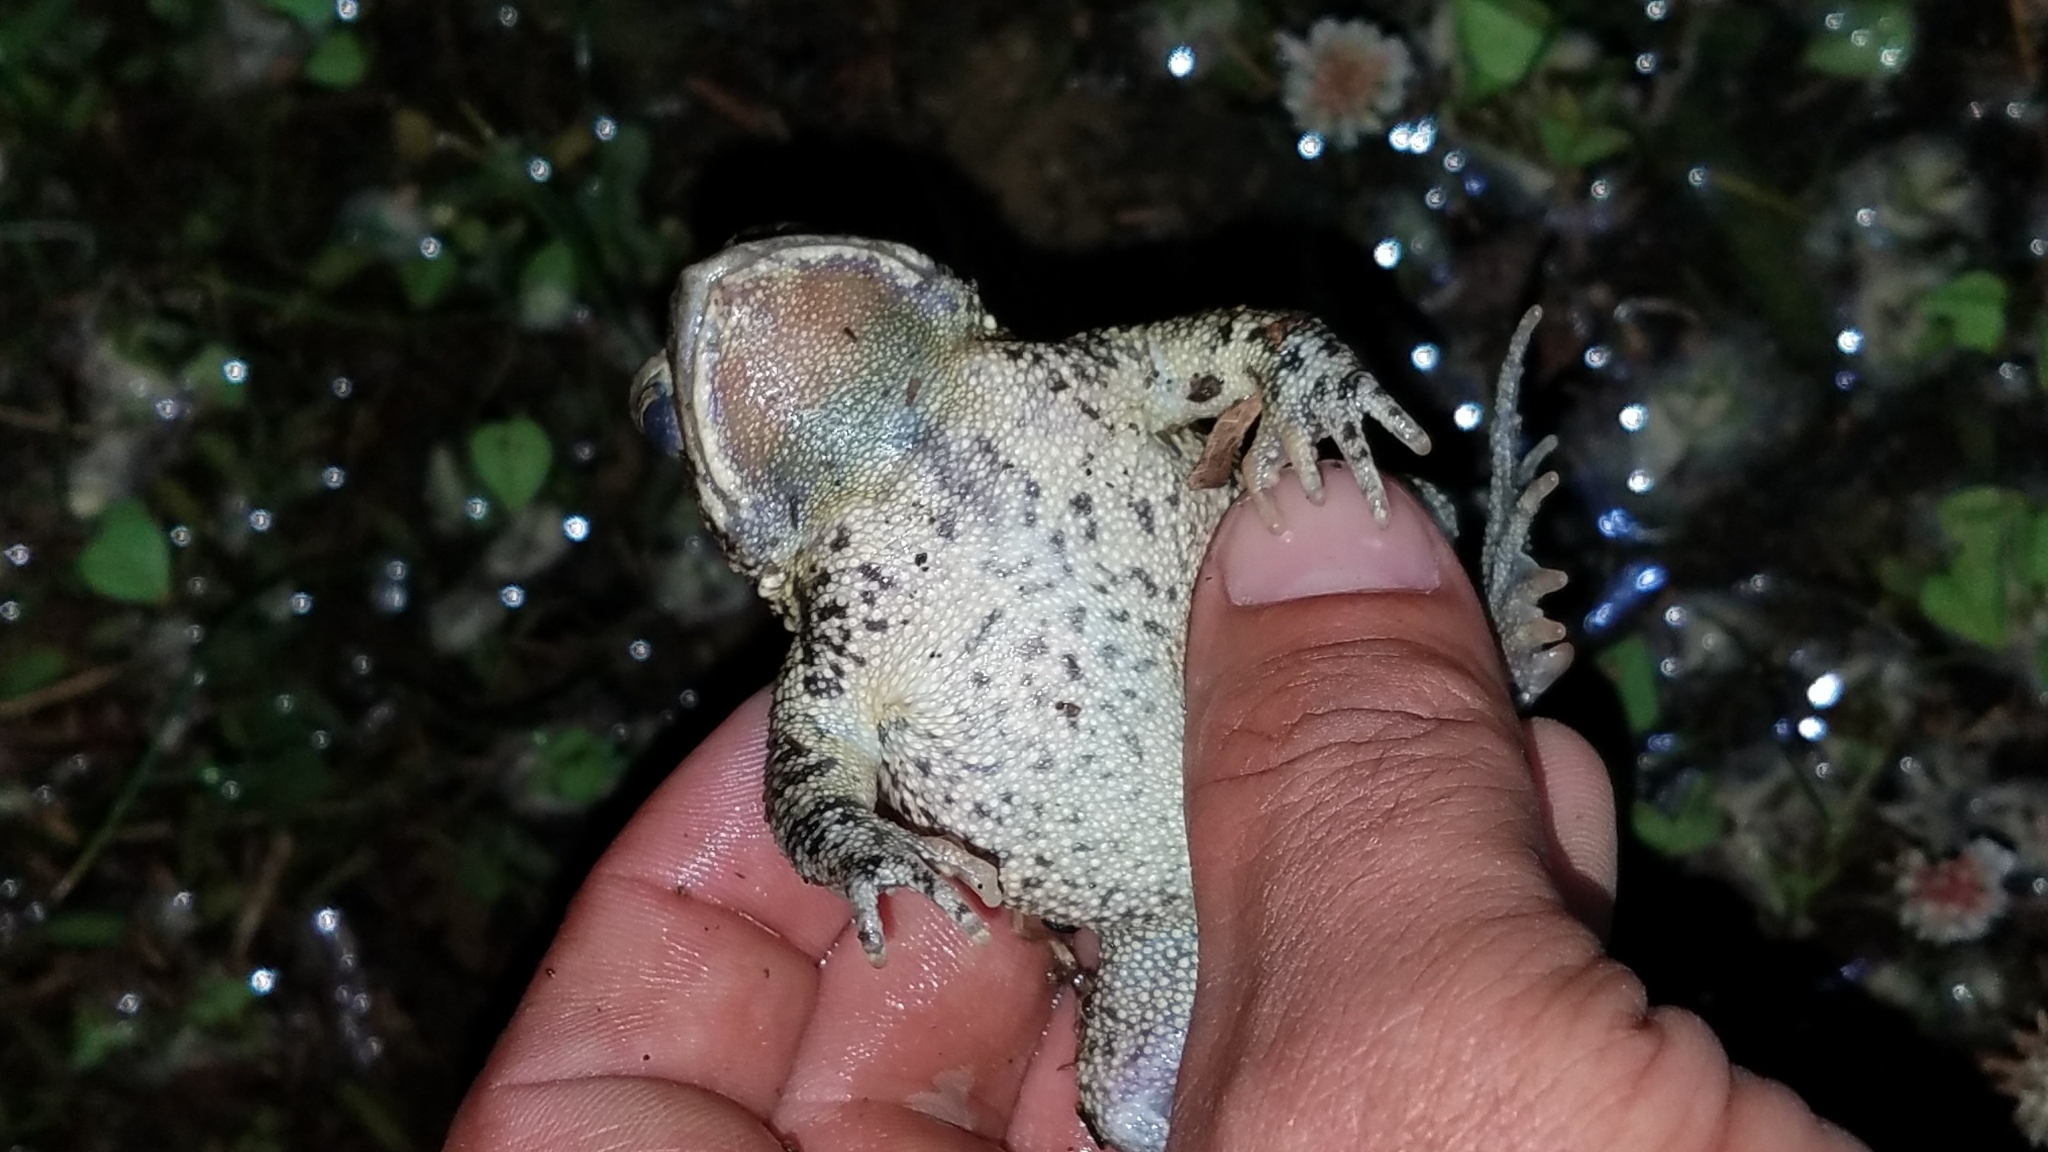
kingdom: Animalia
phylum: Chordata
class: Amphibia
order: Anura
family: Bufonidae
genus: Anaxyrus
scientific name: Anaxyrus americanus
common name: American toad
